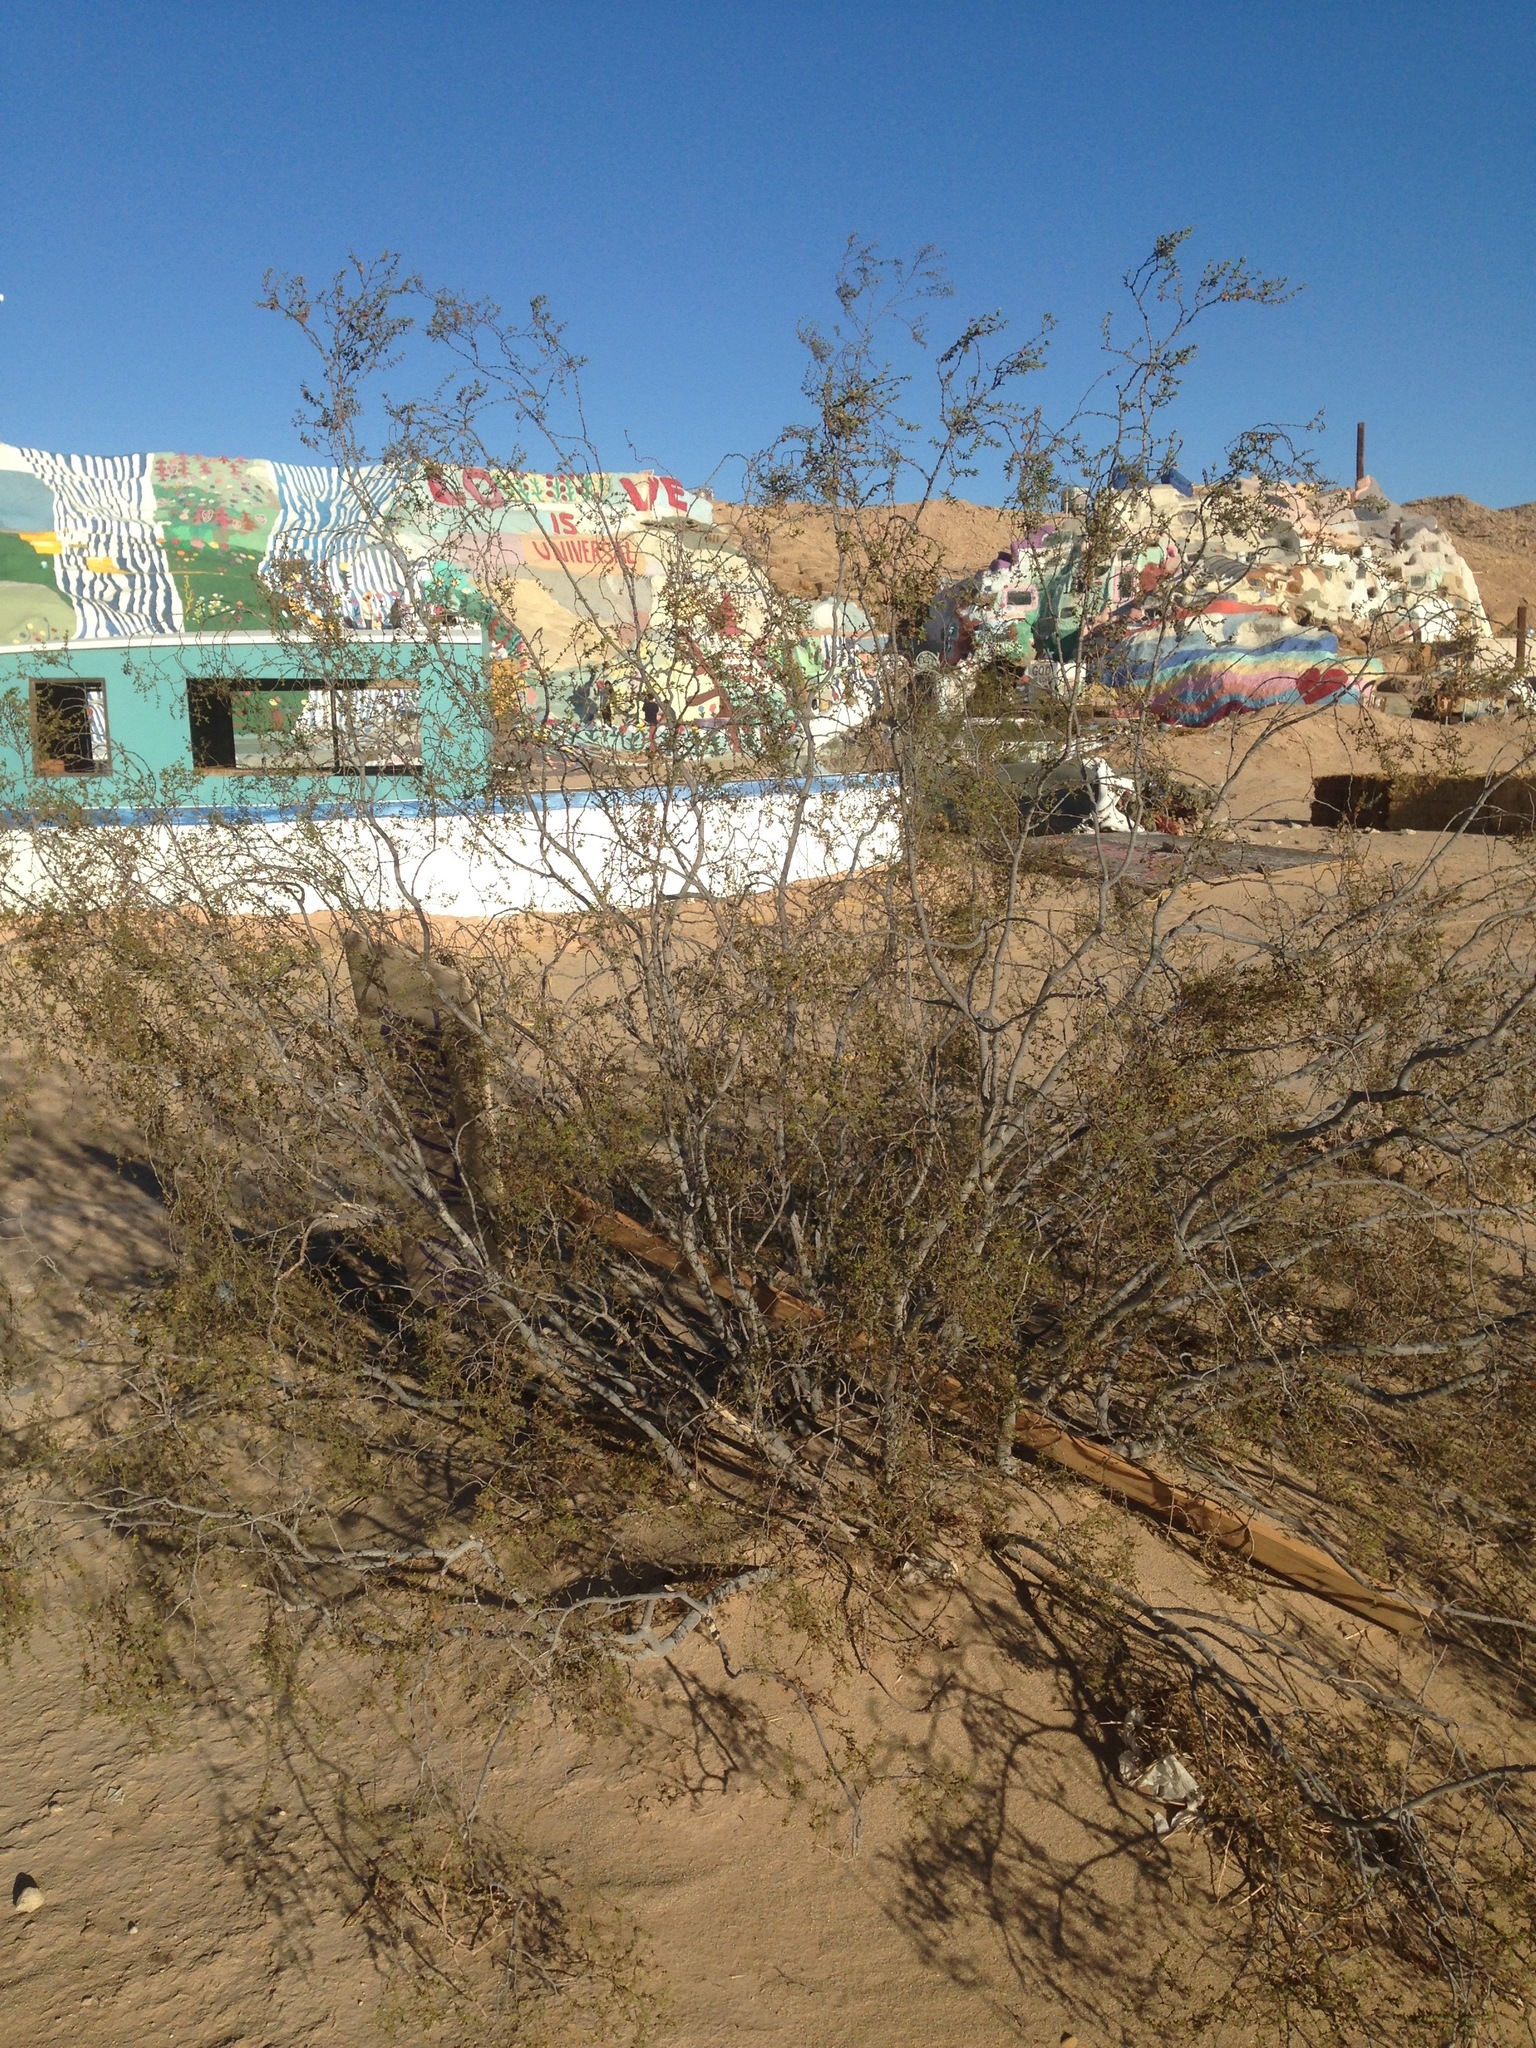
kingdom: Plantae
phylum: Tracheophyta
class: Magnoliopsida
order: Zygophyllales
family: Zygophyllaceae
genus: Larrea
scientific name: Larrea tridentata
